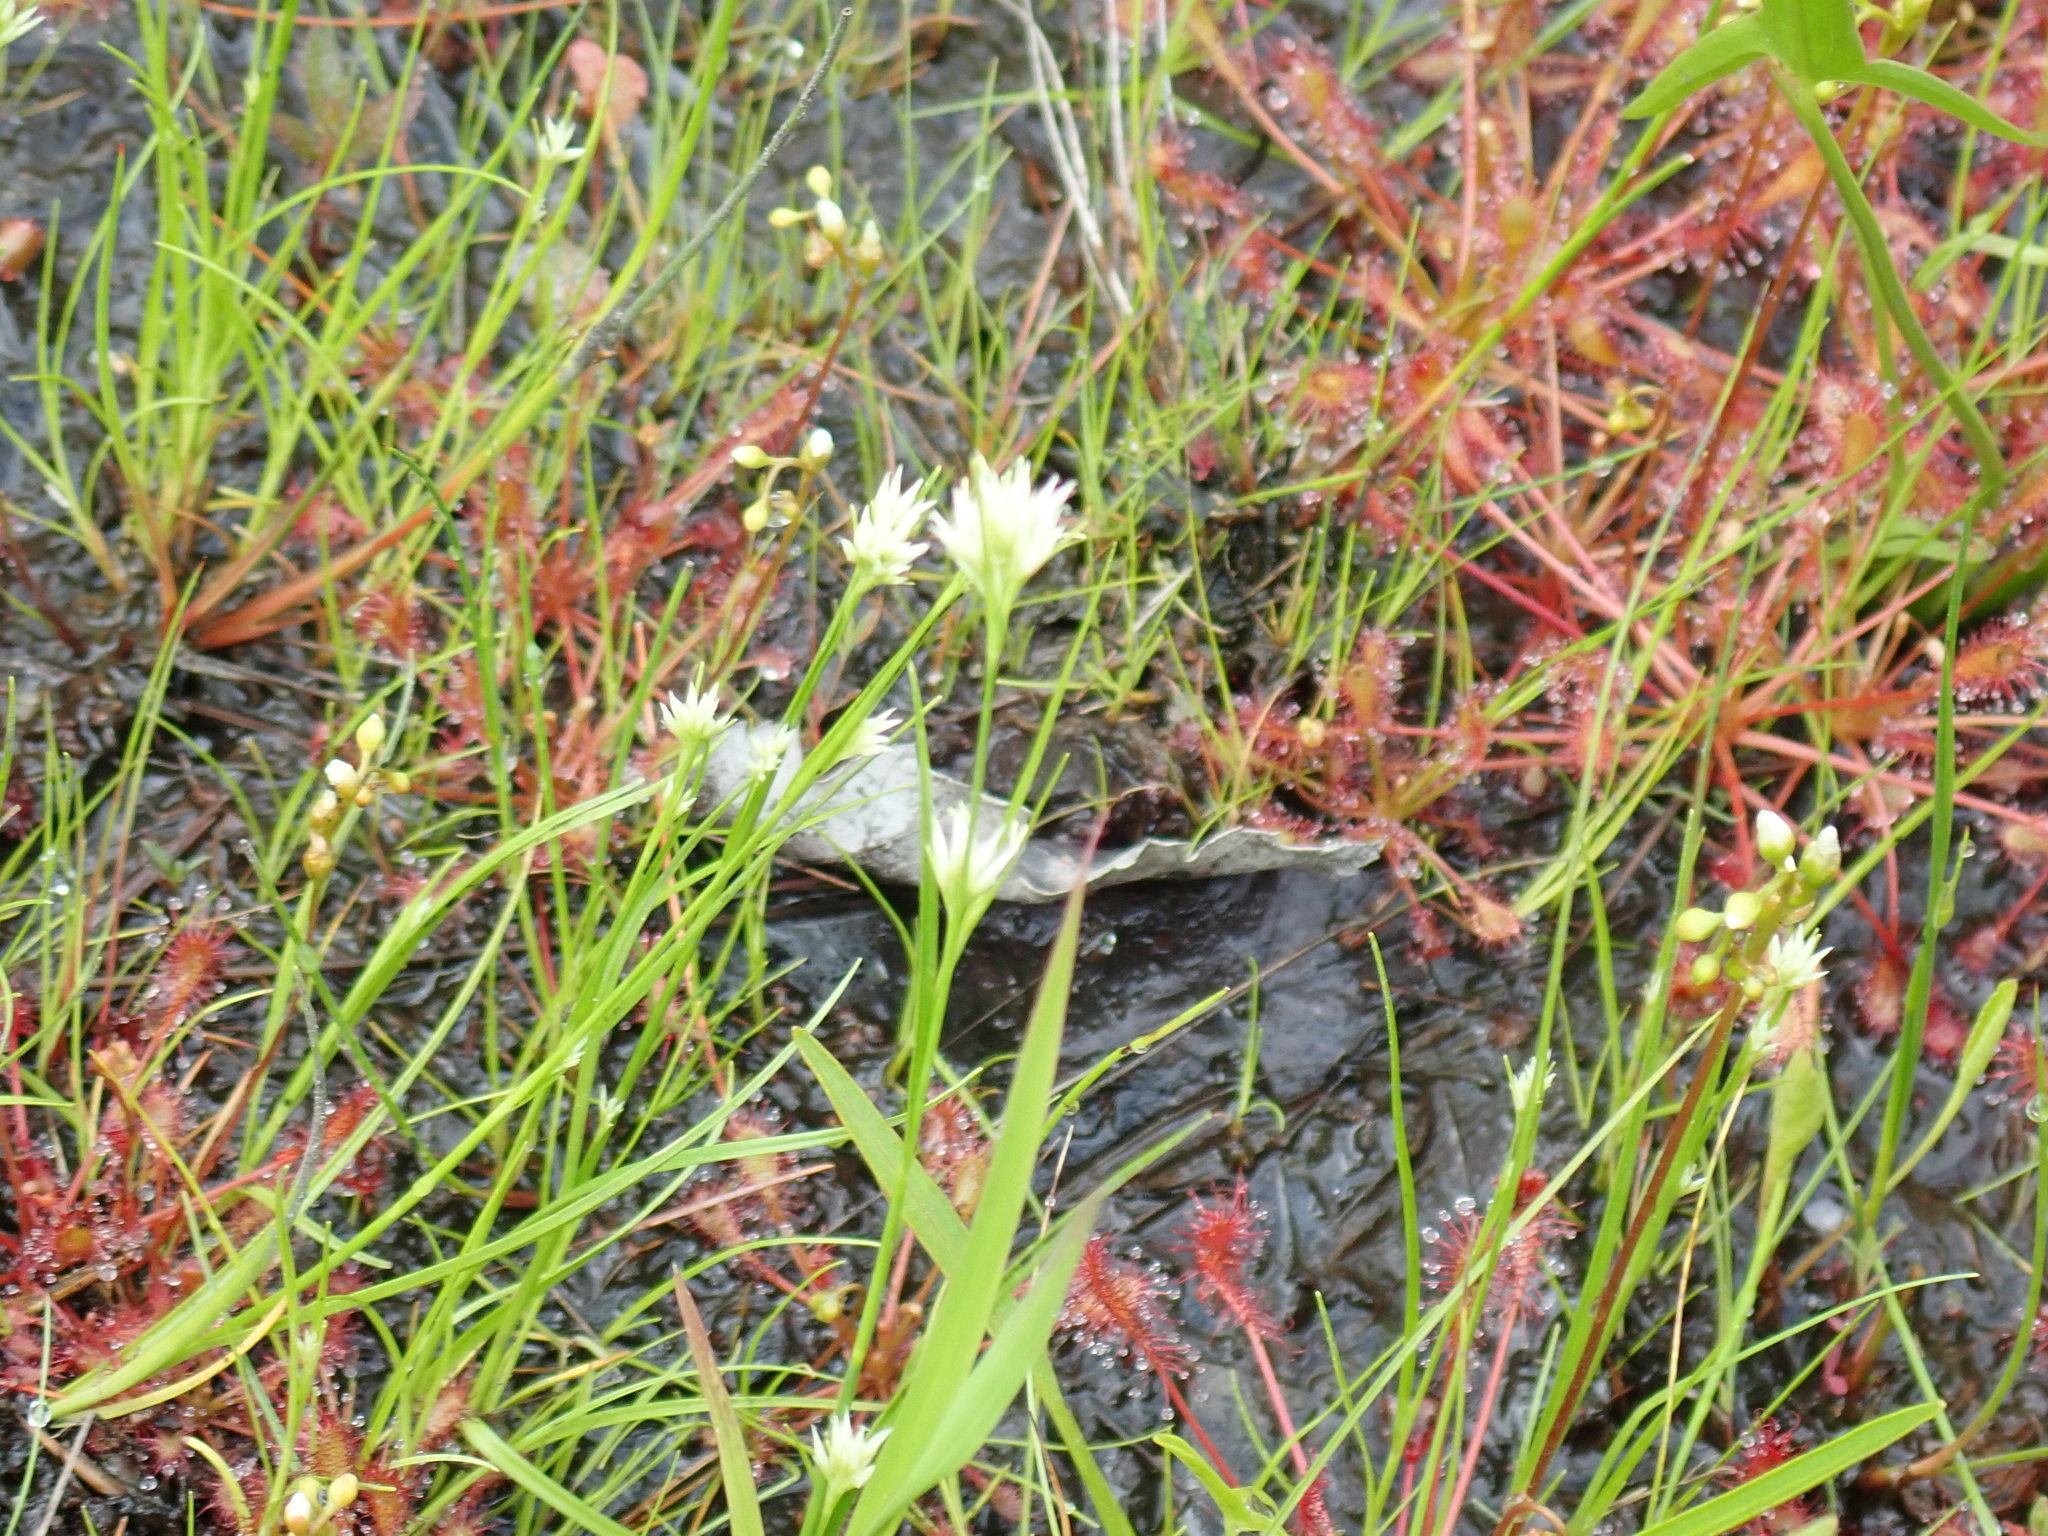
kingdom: Plantae
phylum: Tracheophyta
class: Liliopsida
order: Poales
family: Cyperaceae
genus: Rhynchospora
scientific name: Rhynchospora alba
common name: White beak-sedge
